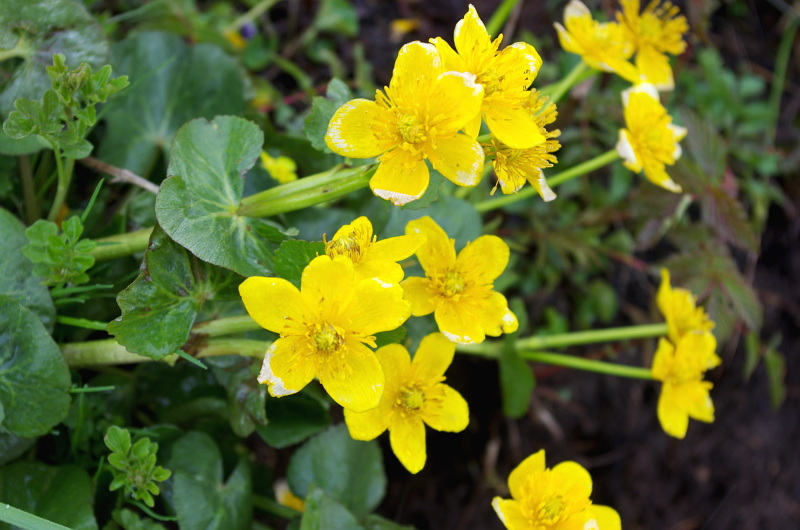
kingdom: Plantae
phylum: Tracheophyta
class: Magnoliopsida
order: Ranunculales
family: Ranunculaceae
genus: Caltha
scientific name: Caltha palustris
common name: Marsh marigold
